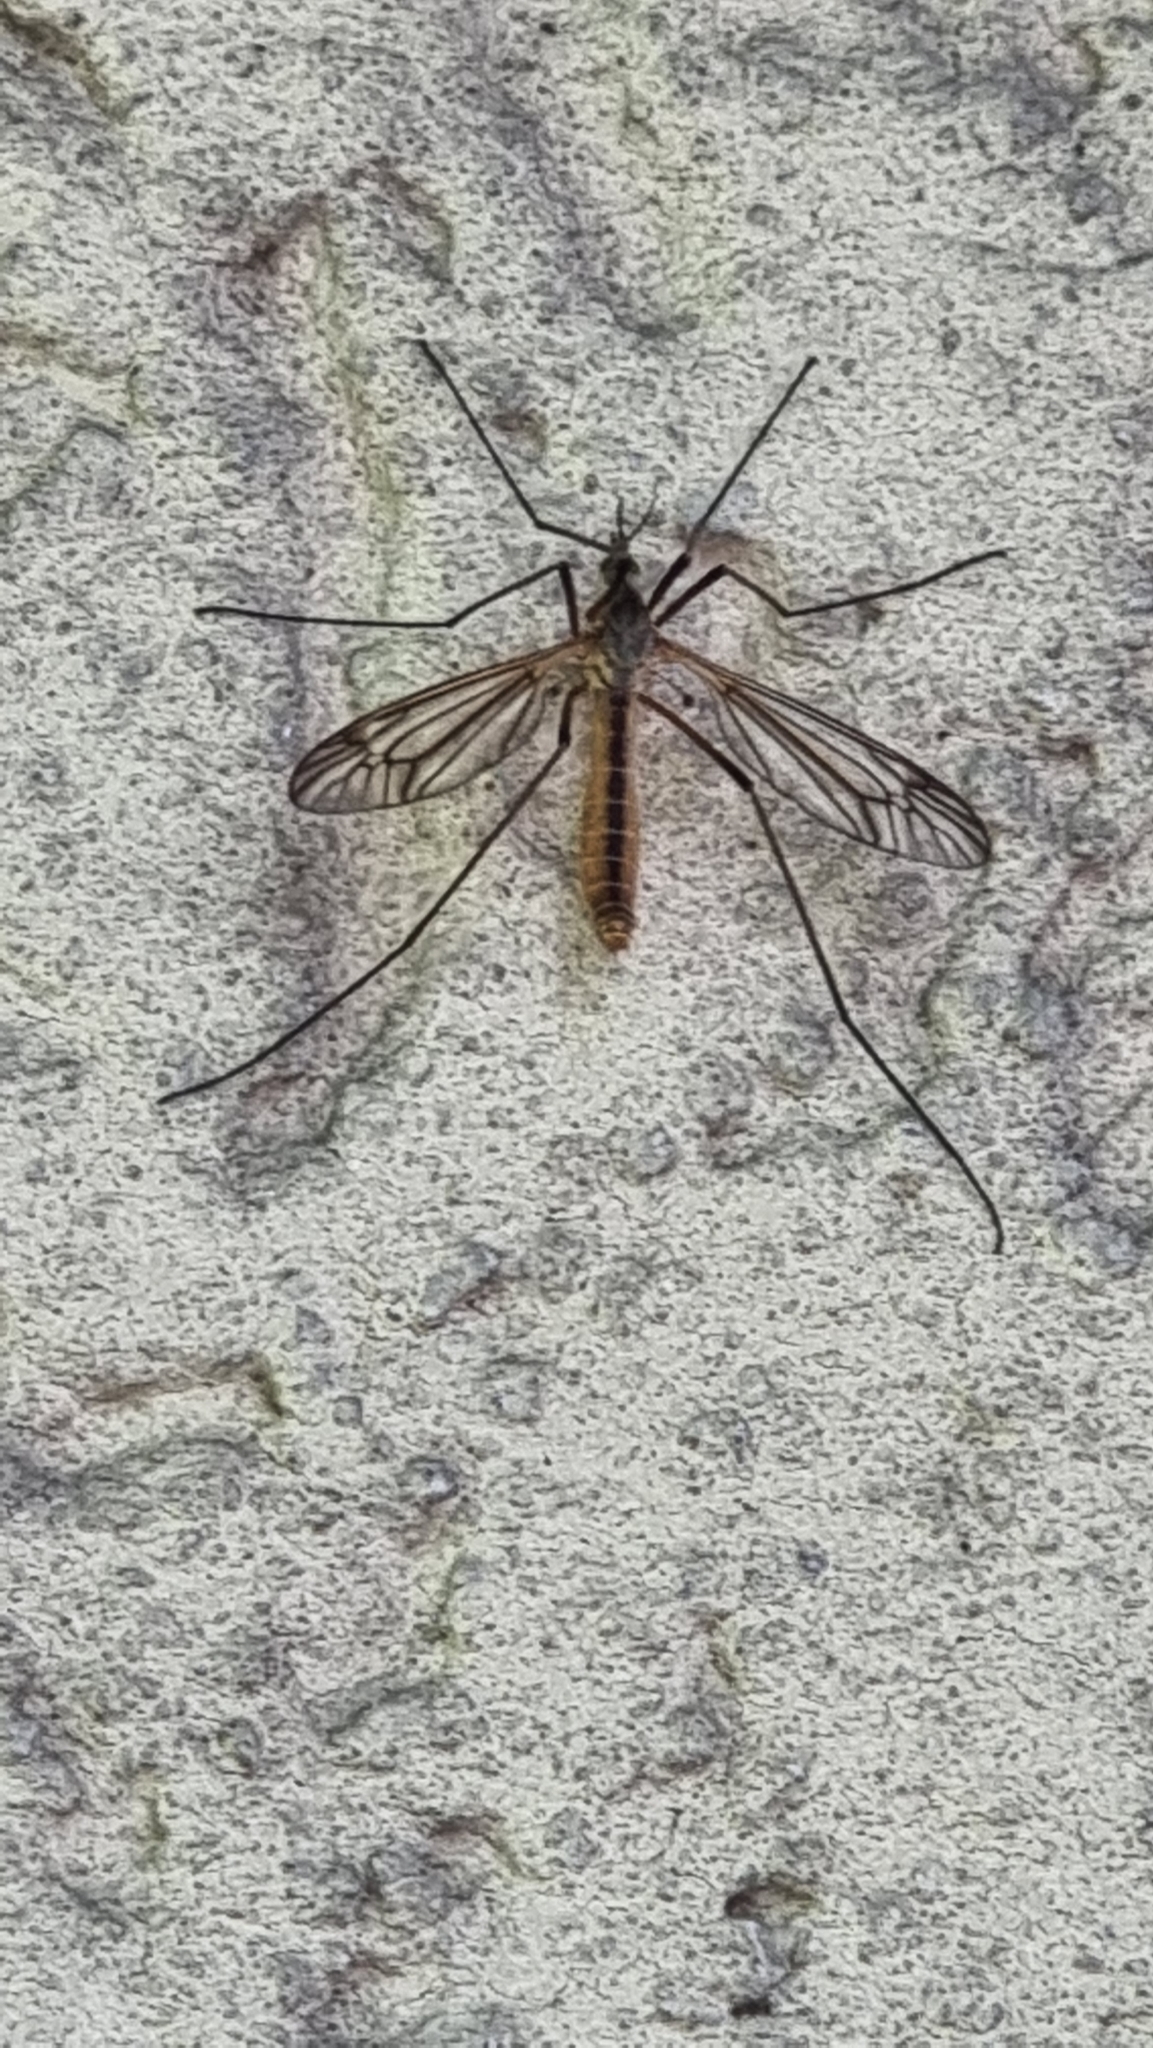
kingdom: Animalia
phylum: Arthropoda
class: Insecta
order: Diptera
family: Tipulidae
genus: Tipula
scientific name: Tipula vernalis
